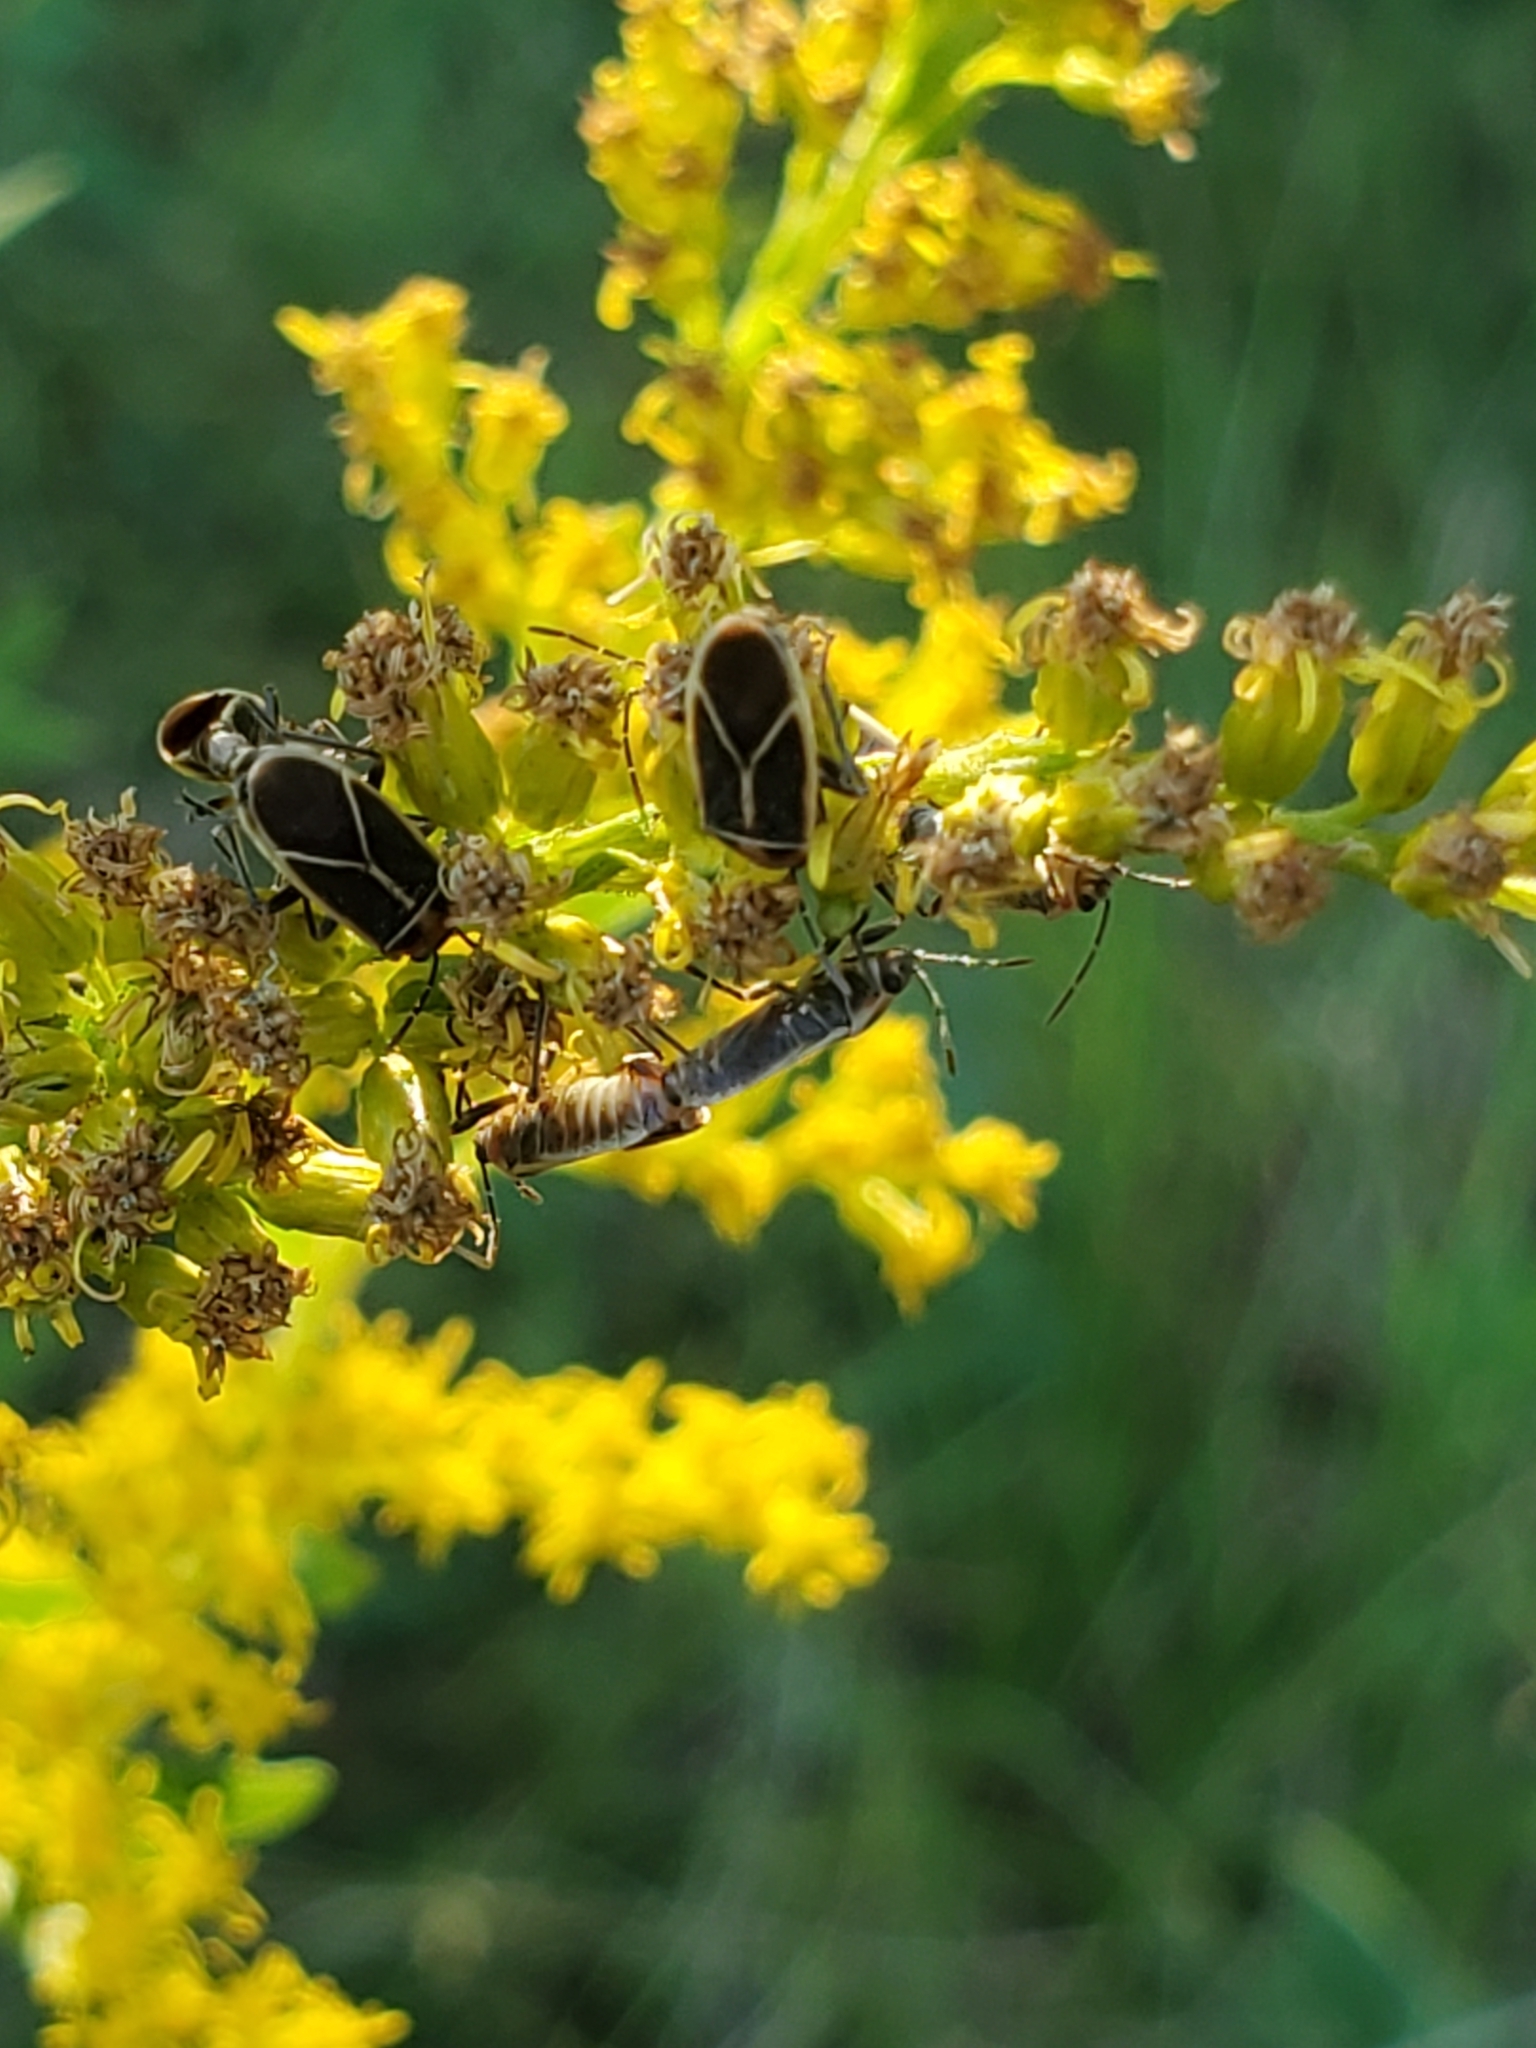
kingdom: Animalia
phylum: Arthropoda
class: Insecta
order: Hemiptera
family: Lygaeidae
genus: Ochrimnus
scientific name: Ochrimnus mimulus
